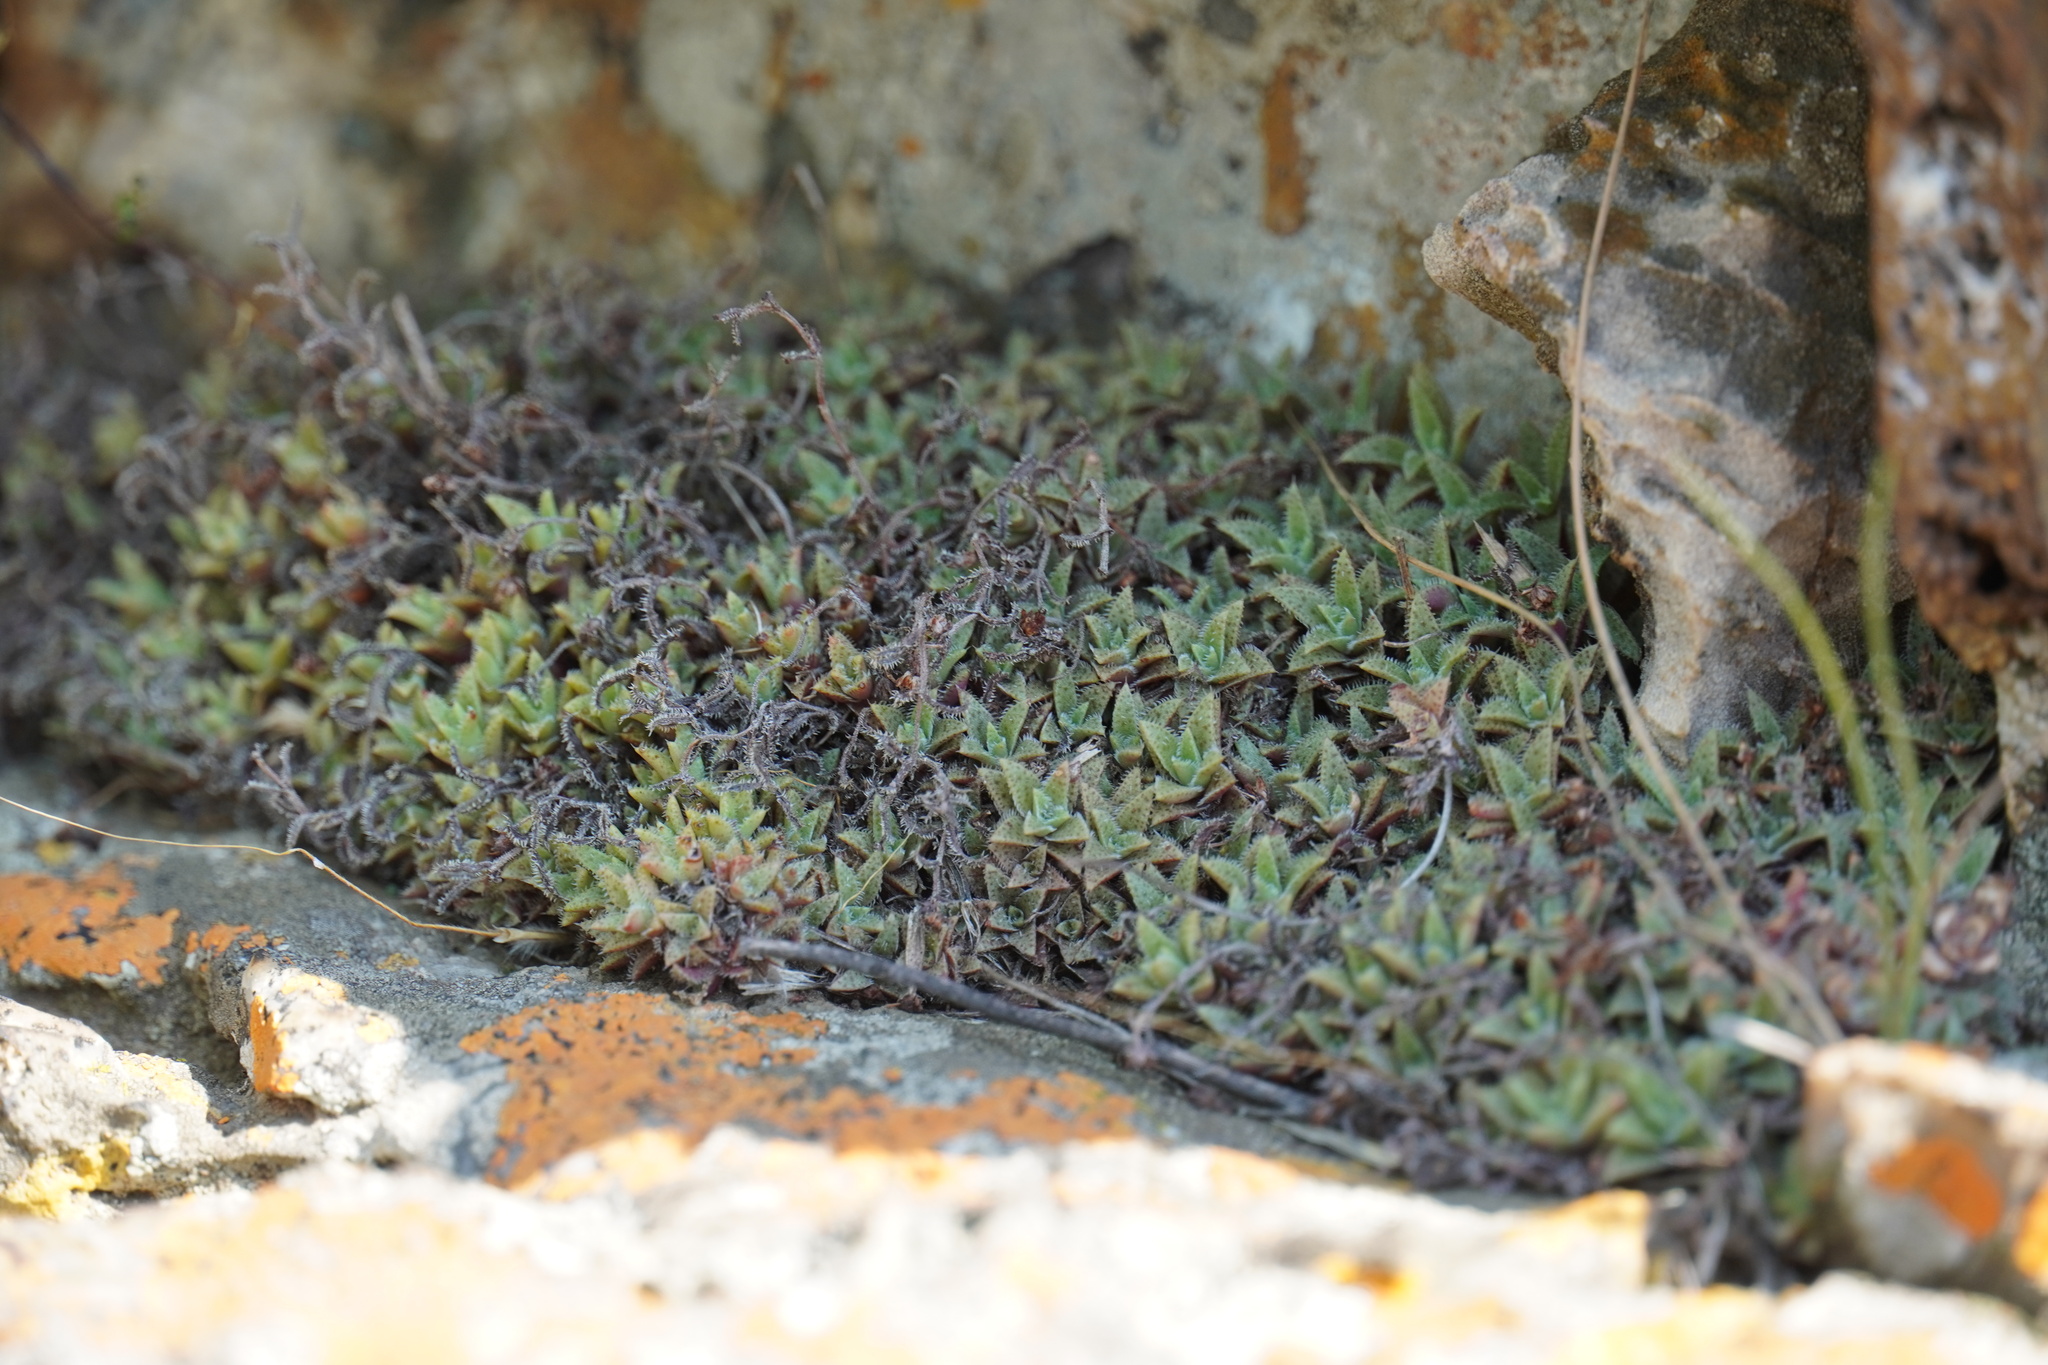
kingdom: Plantae
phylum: Tracheophyta
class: Magnoliopsida
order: Saxifragales
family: Crassulaceae
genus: Crassula
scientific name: Crassula setulosa
